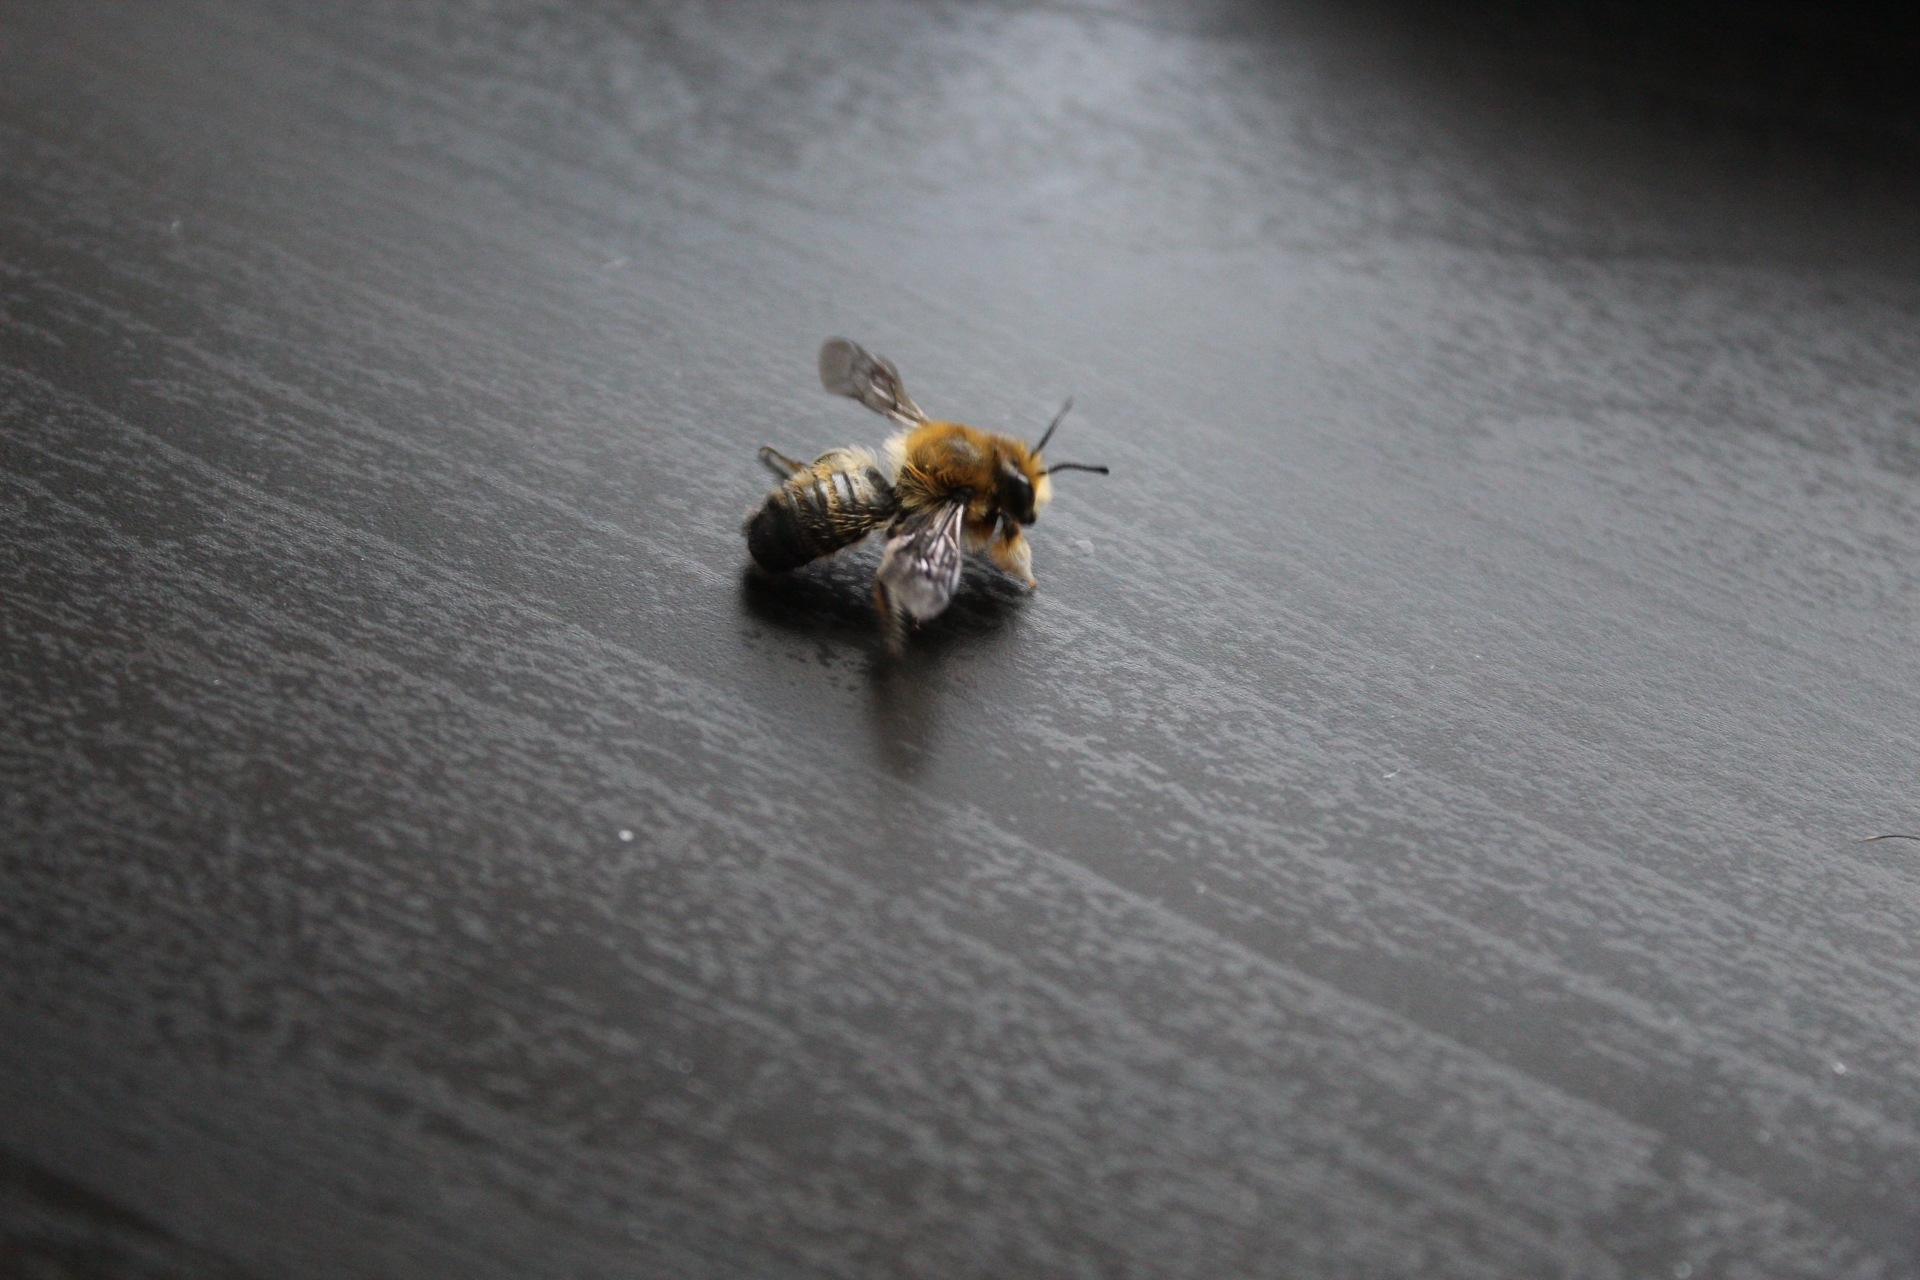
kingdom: Animalia
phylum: Arthropoda
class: Insecta
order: Hymenoptera
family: Megachilidae
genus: Megachile
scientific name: Megachile willughbiella
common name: Willughby's leafcutter bee
